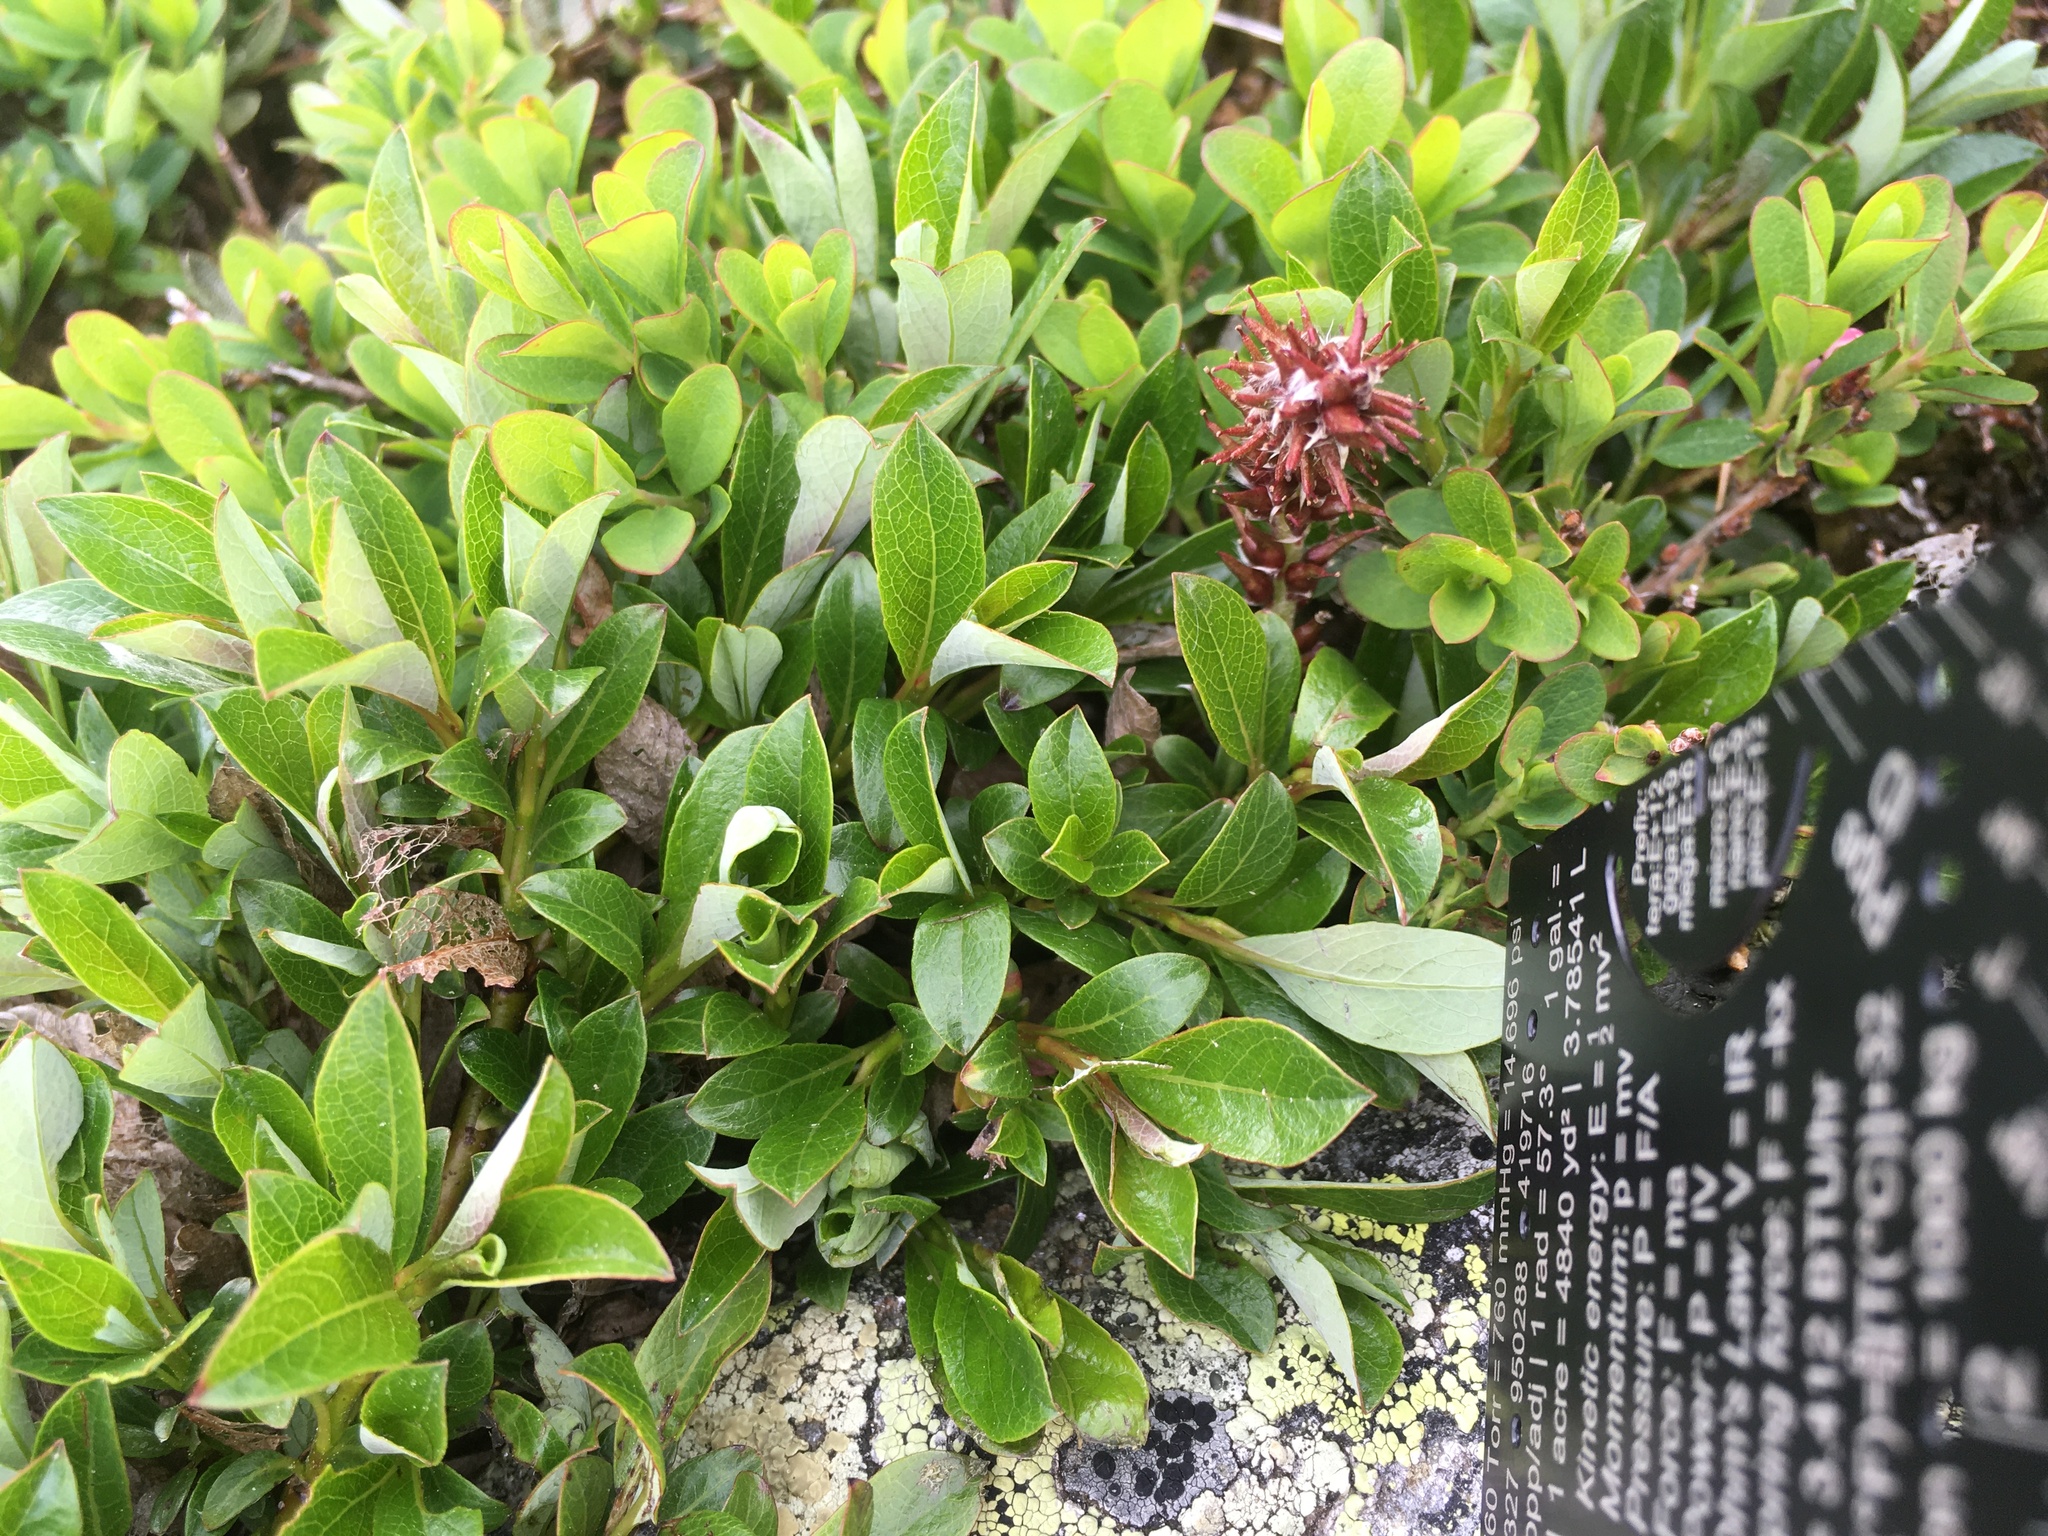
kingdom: Plantae
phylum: Tracheophyta
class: Magnoliopsida
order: Malpighiales
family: Salicaceae
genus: Salix
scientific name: Salix uva-ursi
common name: Bearberry willow
